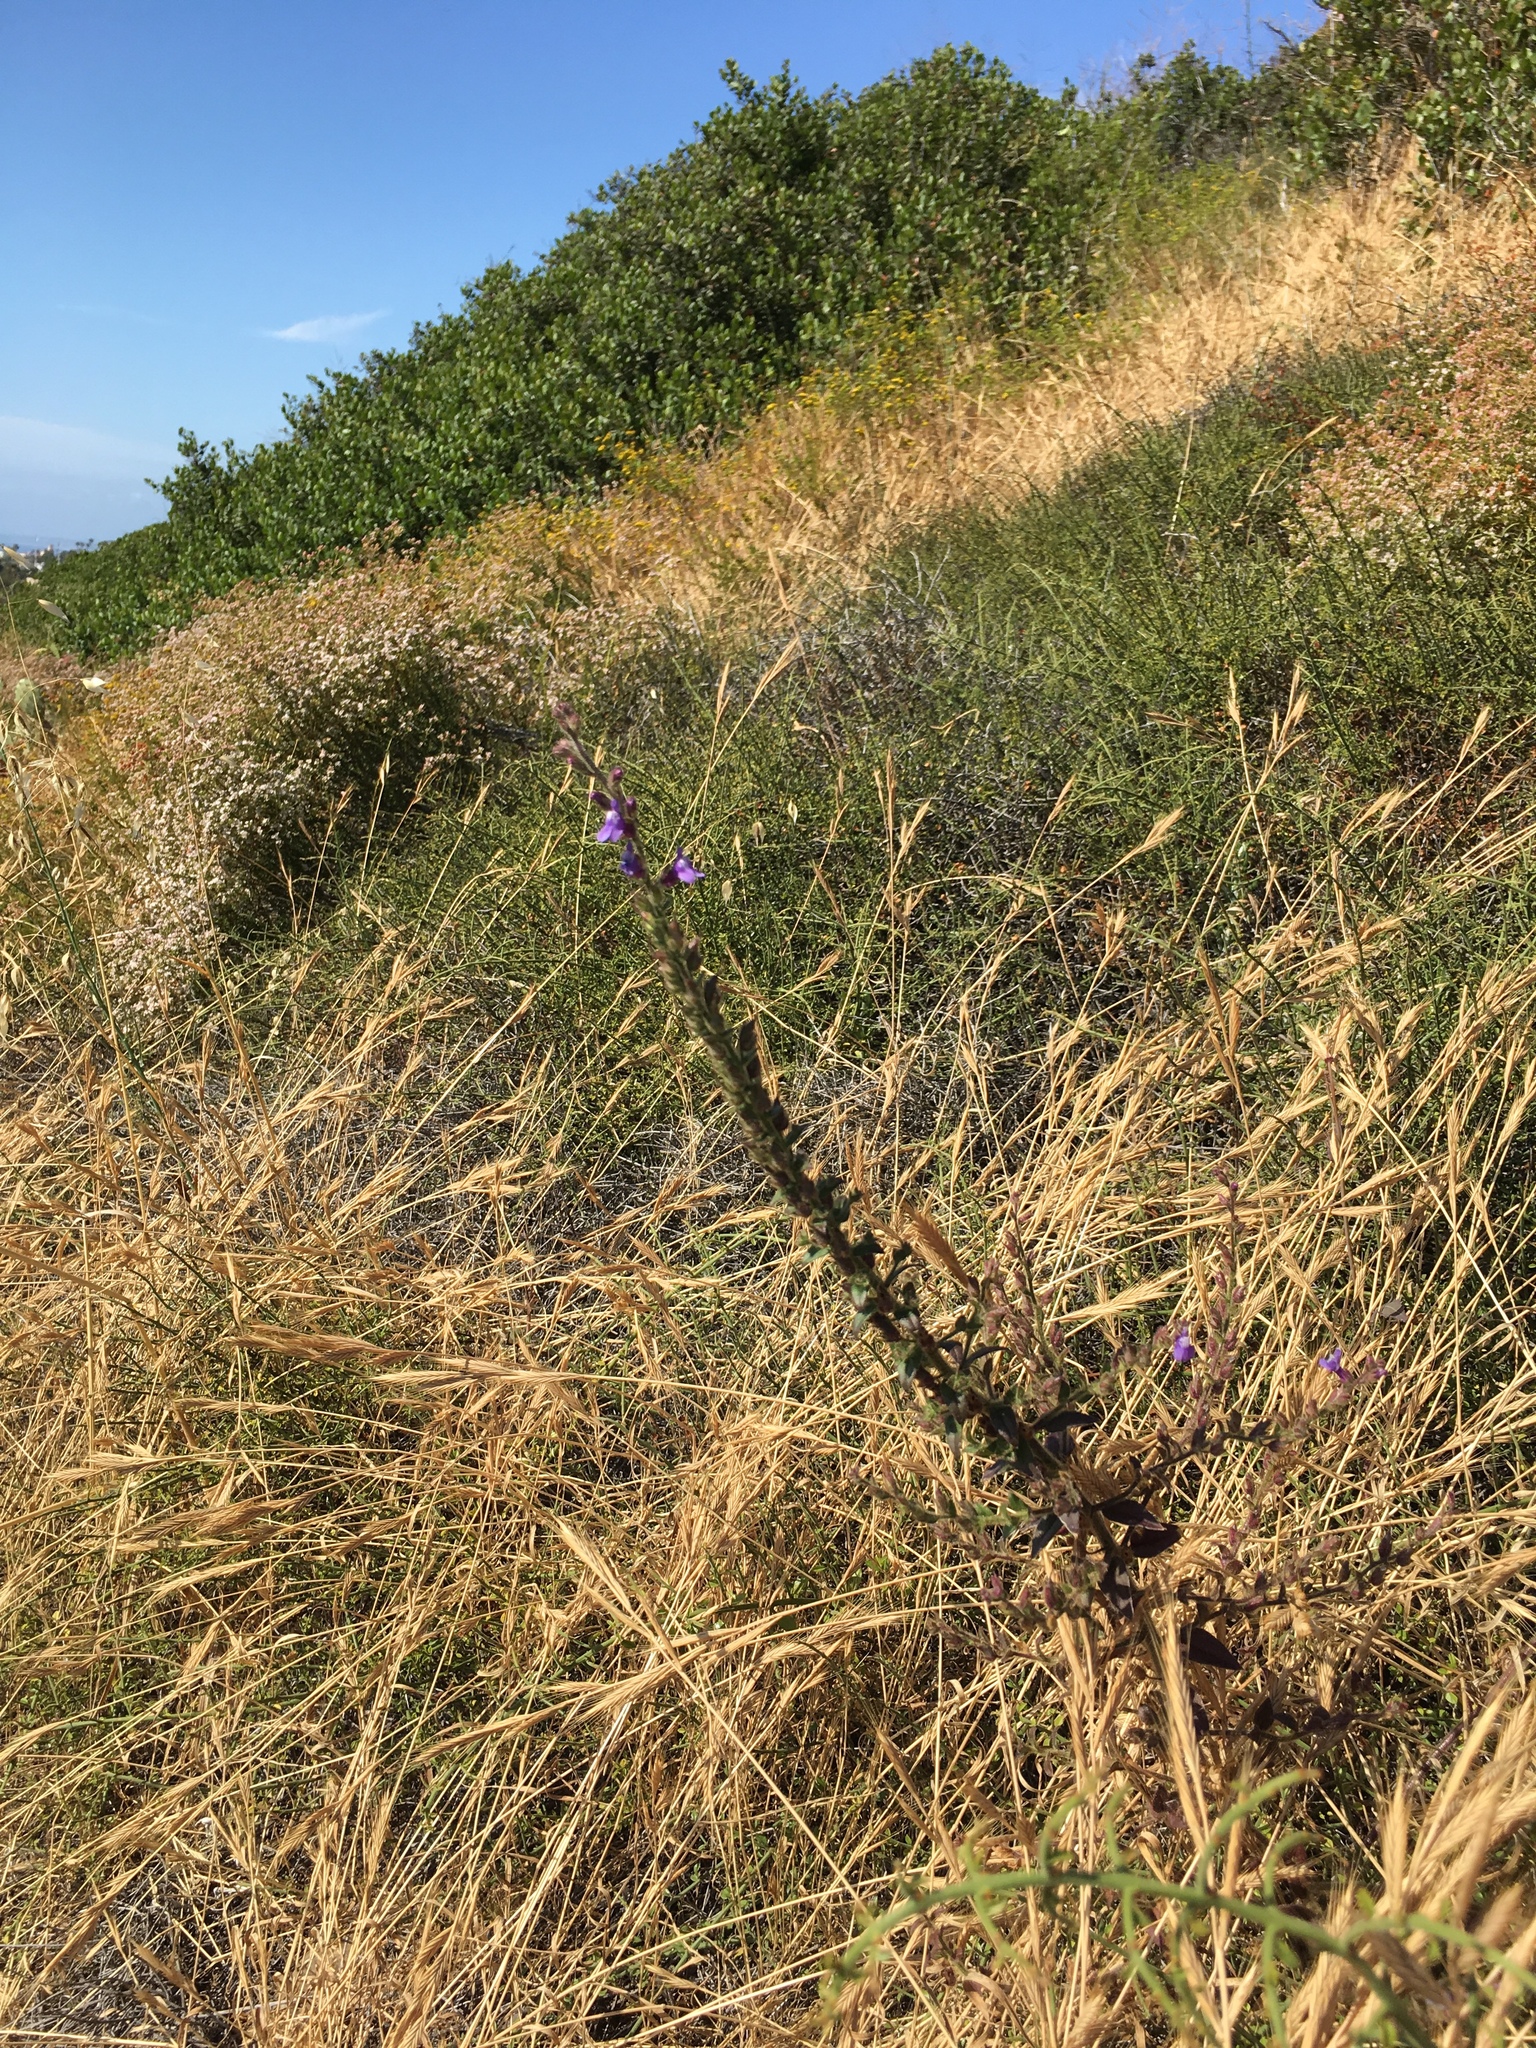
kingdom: Plantae
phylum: Tracheophyta
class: Magnoliopsida
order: Lamiales
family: Plantaginaceae
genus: Sairocarpus
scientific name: Sairocarpus nuttallianus
